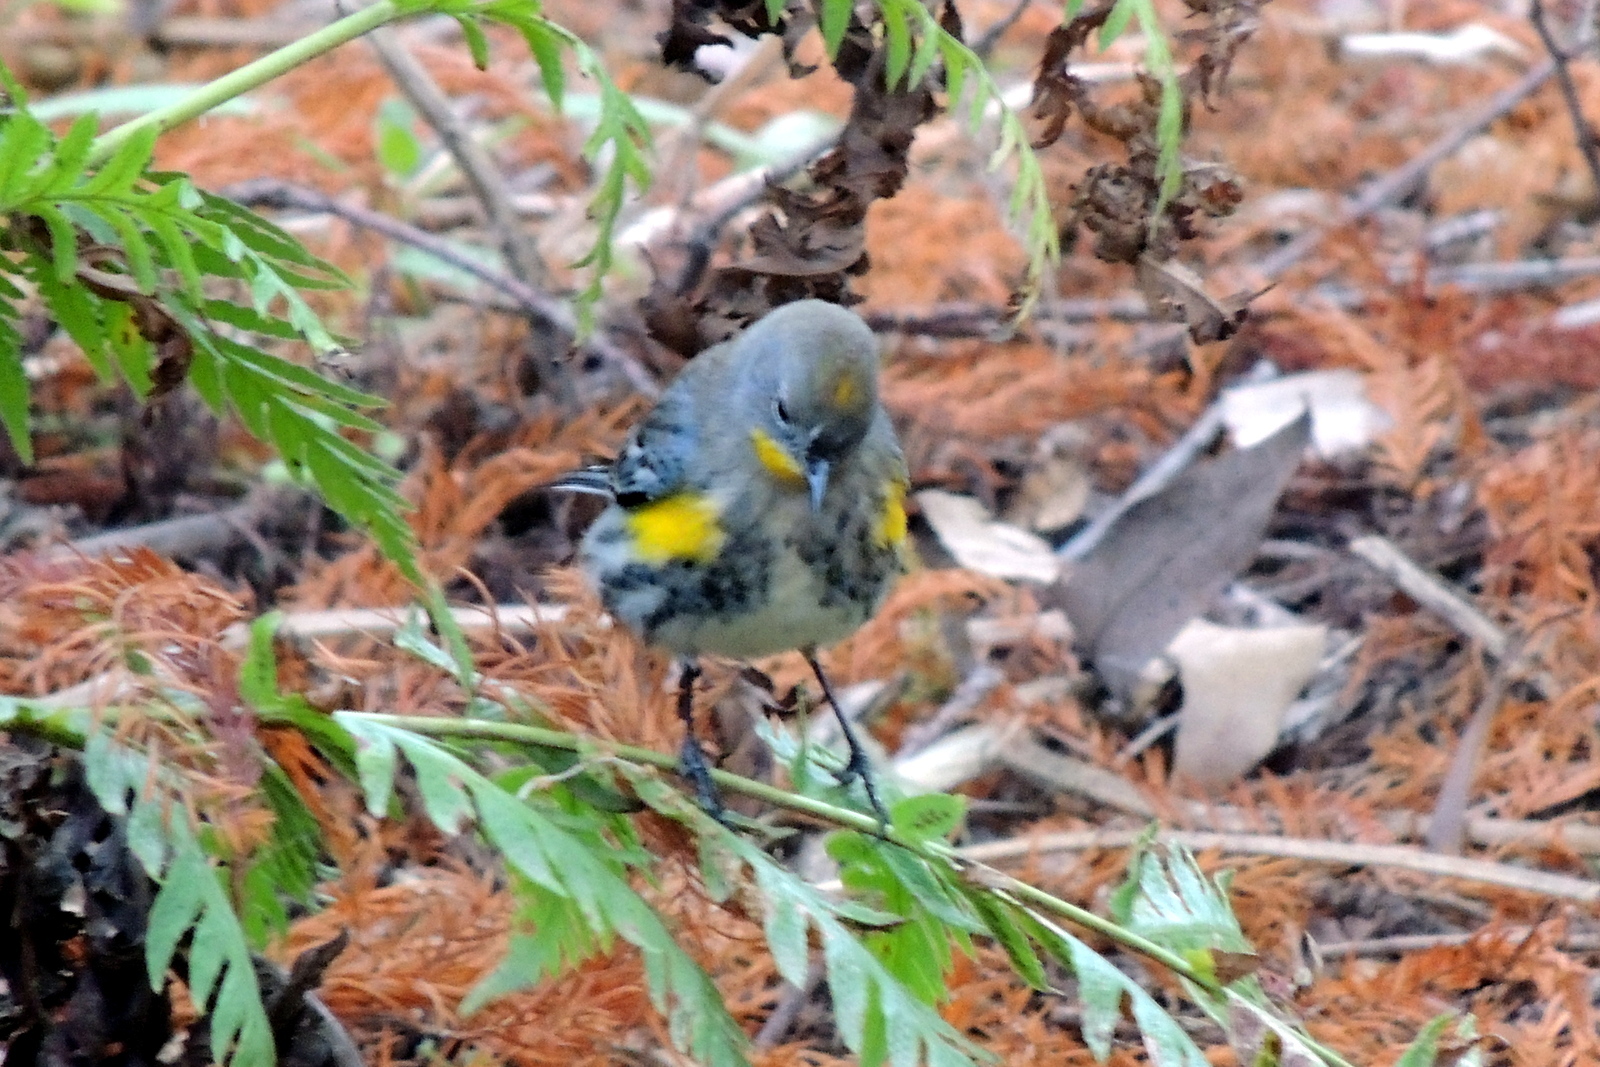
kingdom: Animalia
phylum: Chordata
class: Aves
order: Passeriformes
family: Parulidae
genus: Setophaga
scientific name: Setophaga coronata
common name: Myrtle warbler
